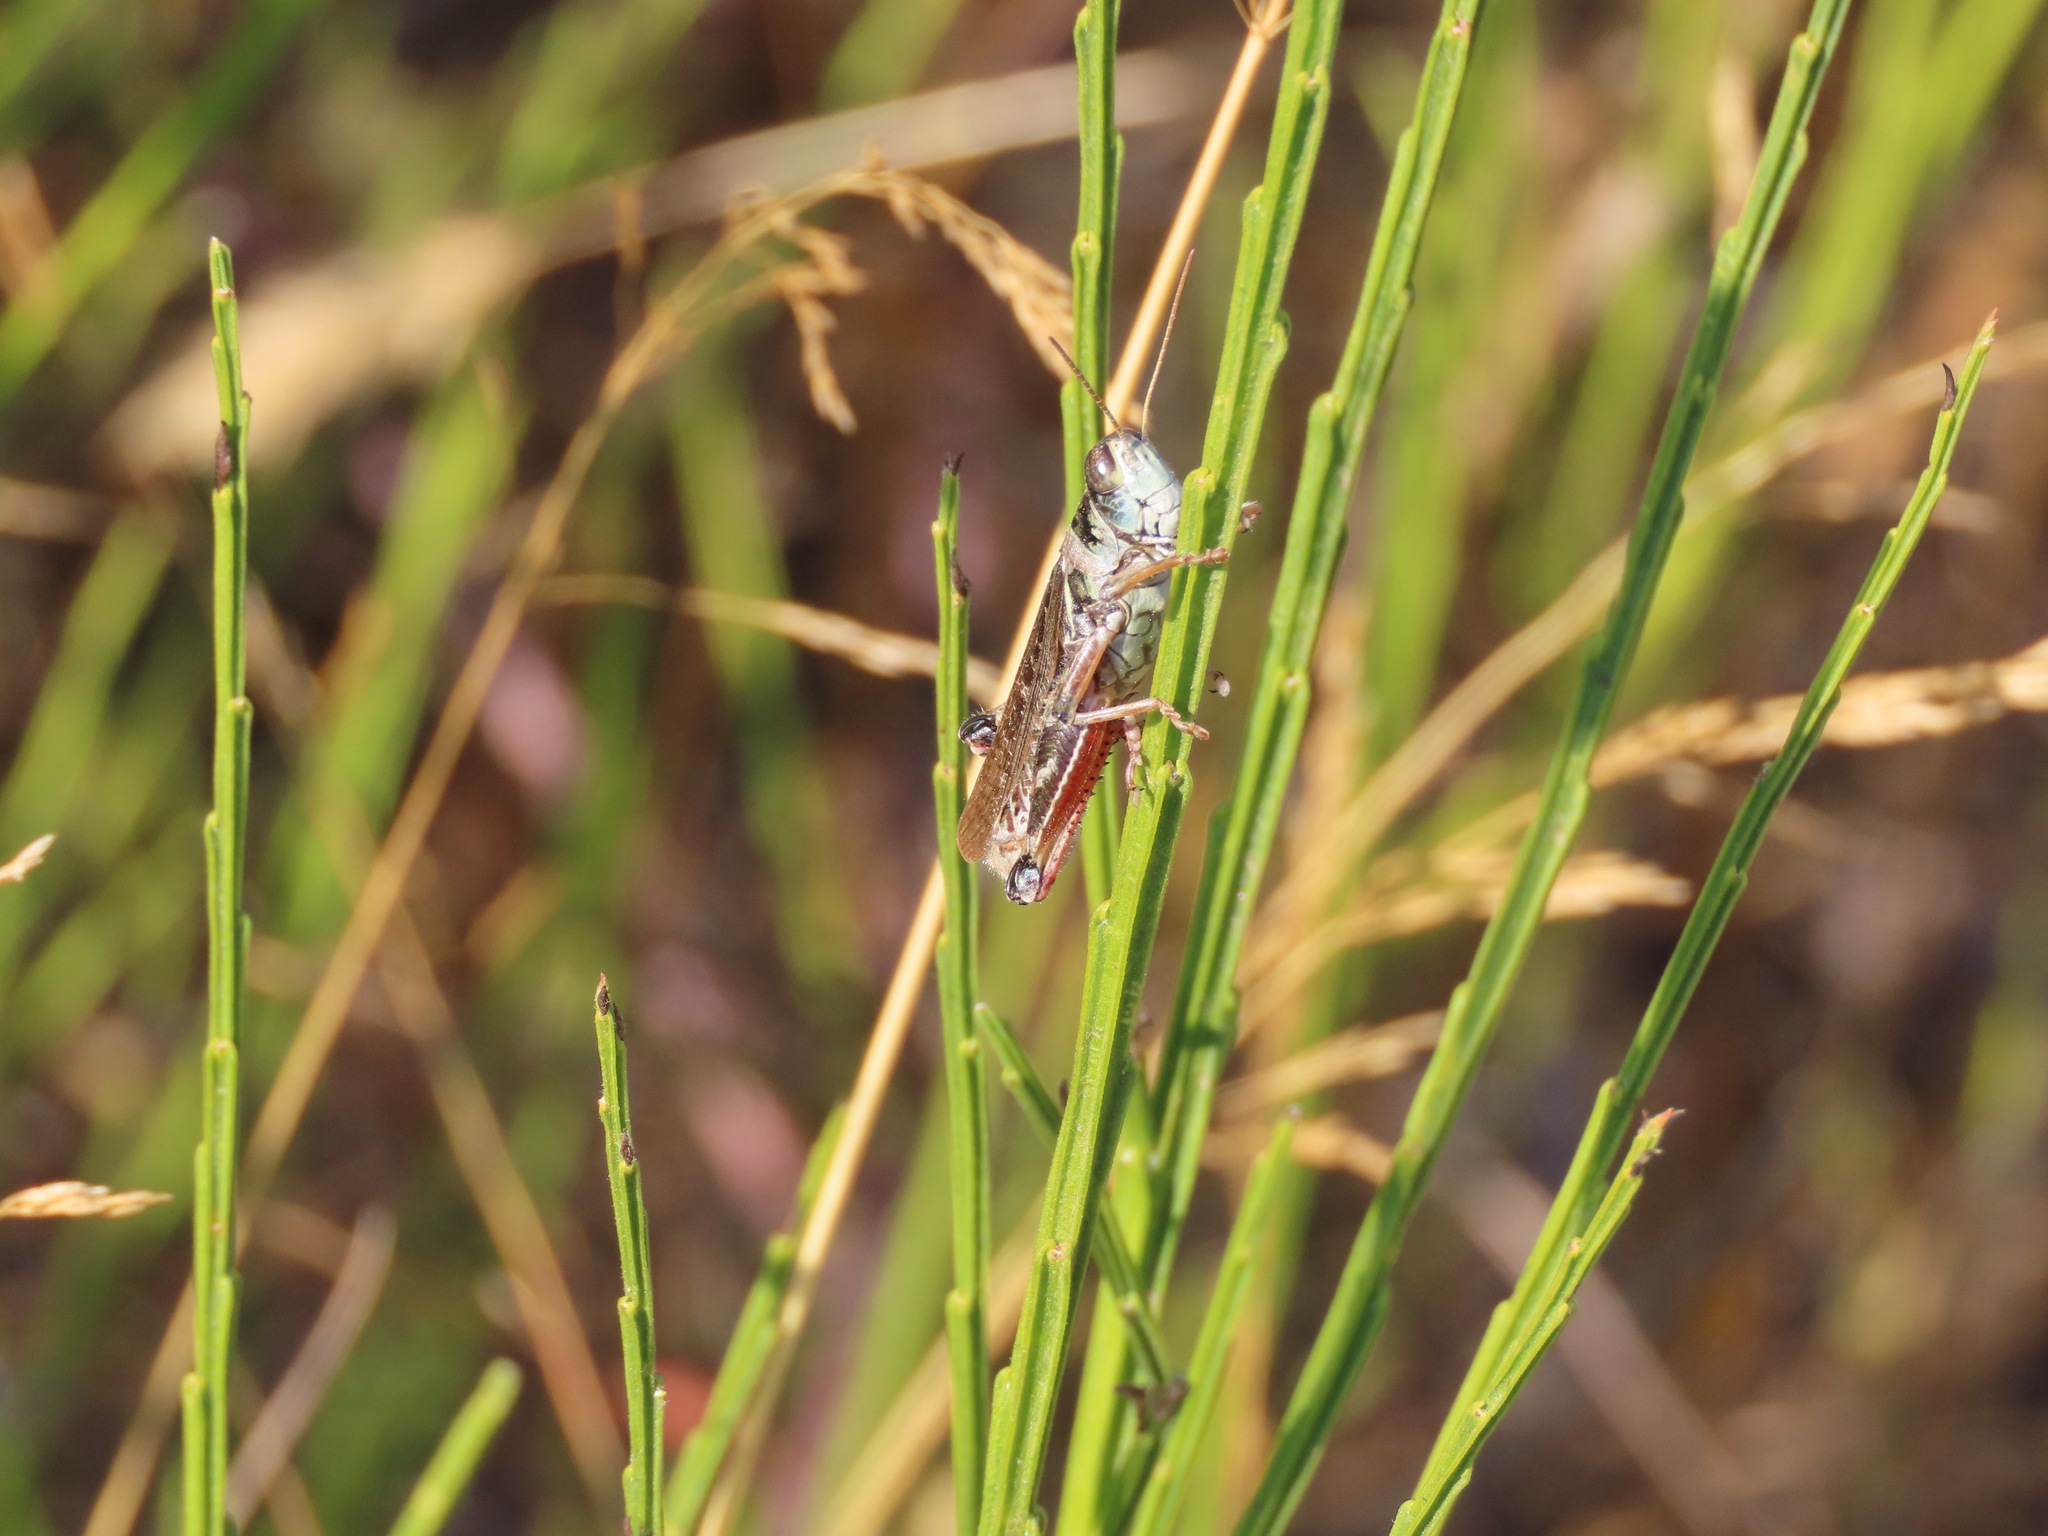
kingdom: Animalia
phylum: Arthropoda
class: Insecta
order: Orthoptera
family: Acrididae
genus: Melanoplus
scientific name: Melanoplus sanguinipes
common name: Migratory grasshopper
